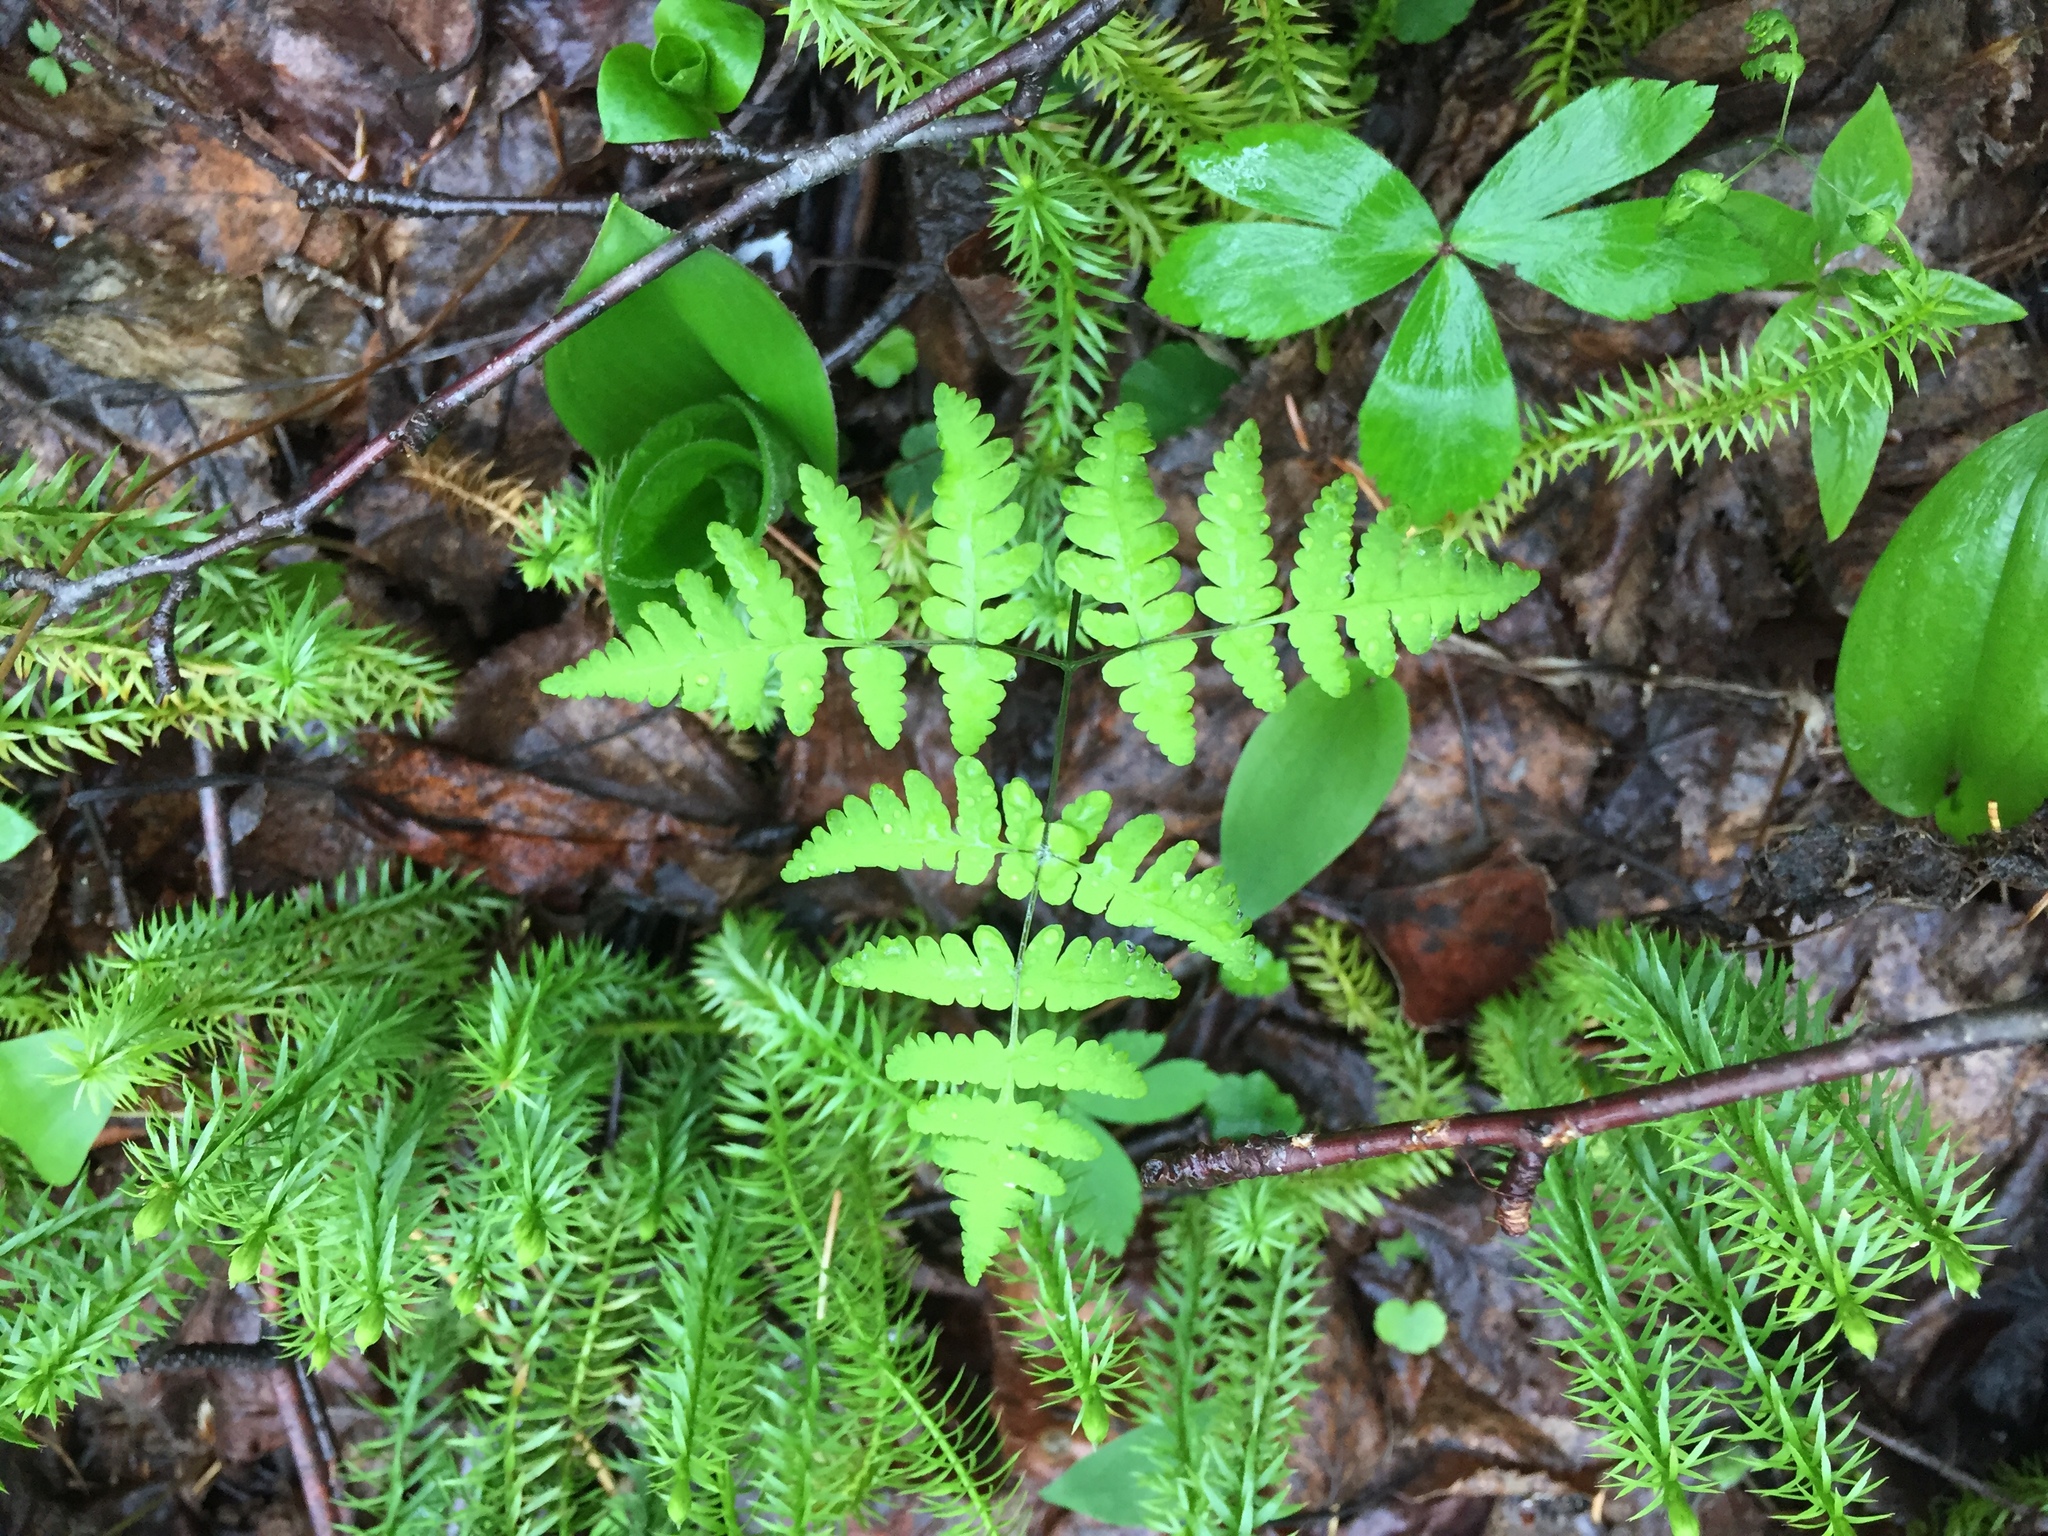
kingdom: Plantae
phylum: Tracheophyta
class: Polypodiopsida
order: Polypodiales
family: Cystopteridaceae
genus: Gymnocarpium
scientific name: Gymnocarpium dryopteris
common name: Oak fern
